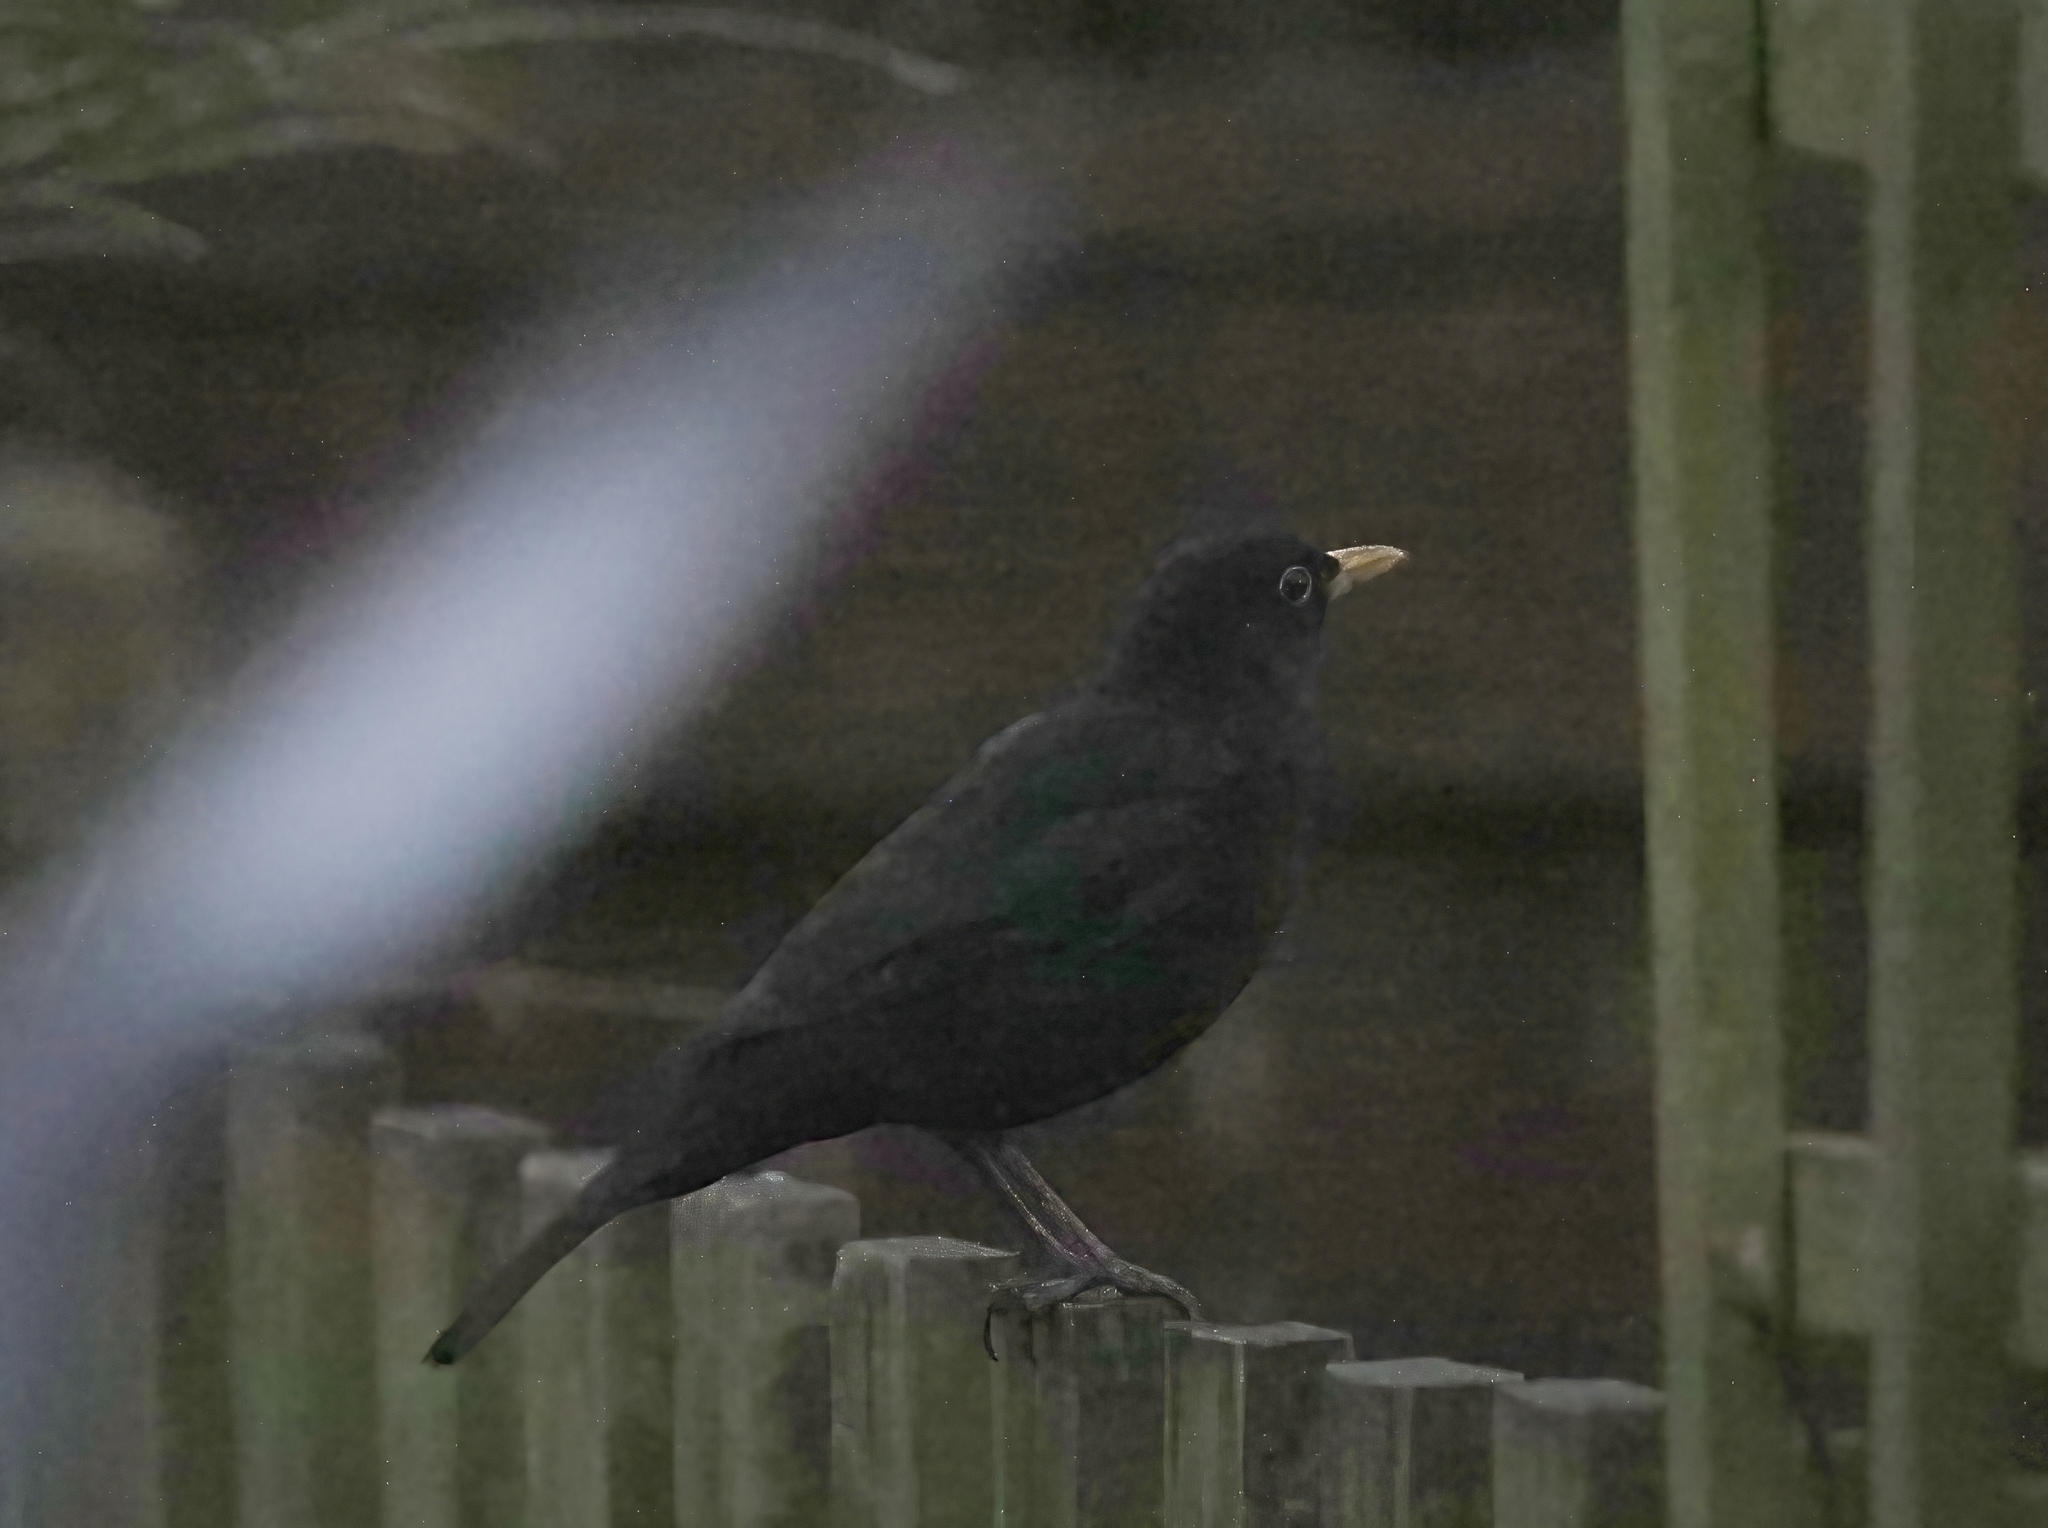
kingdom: Animalia
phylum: Chordata
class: Aves
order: Passeriformes
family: Turdidae
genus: Turdus
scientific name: Turdus merula
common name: Common blackbird
